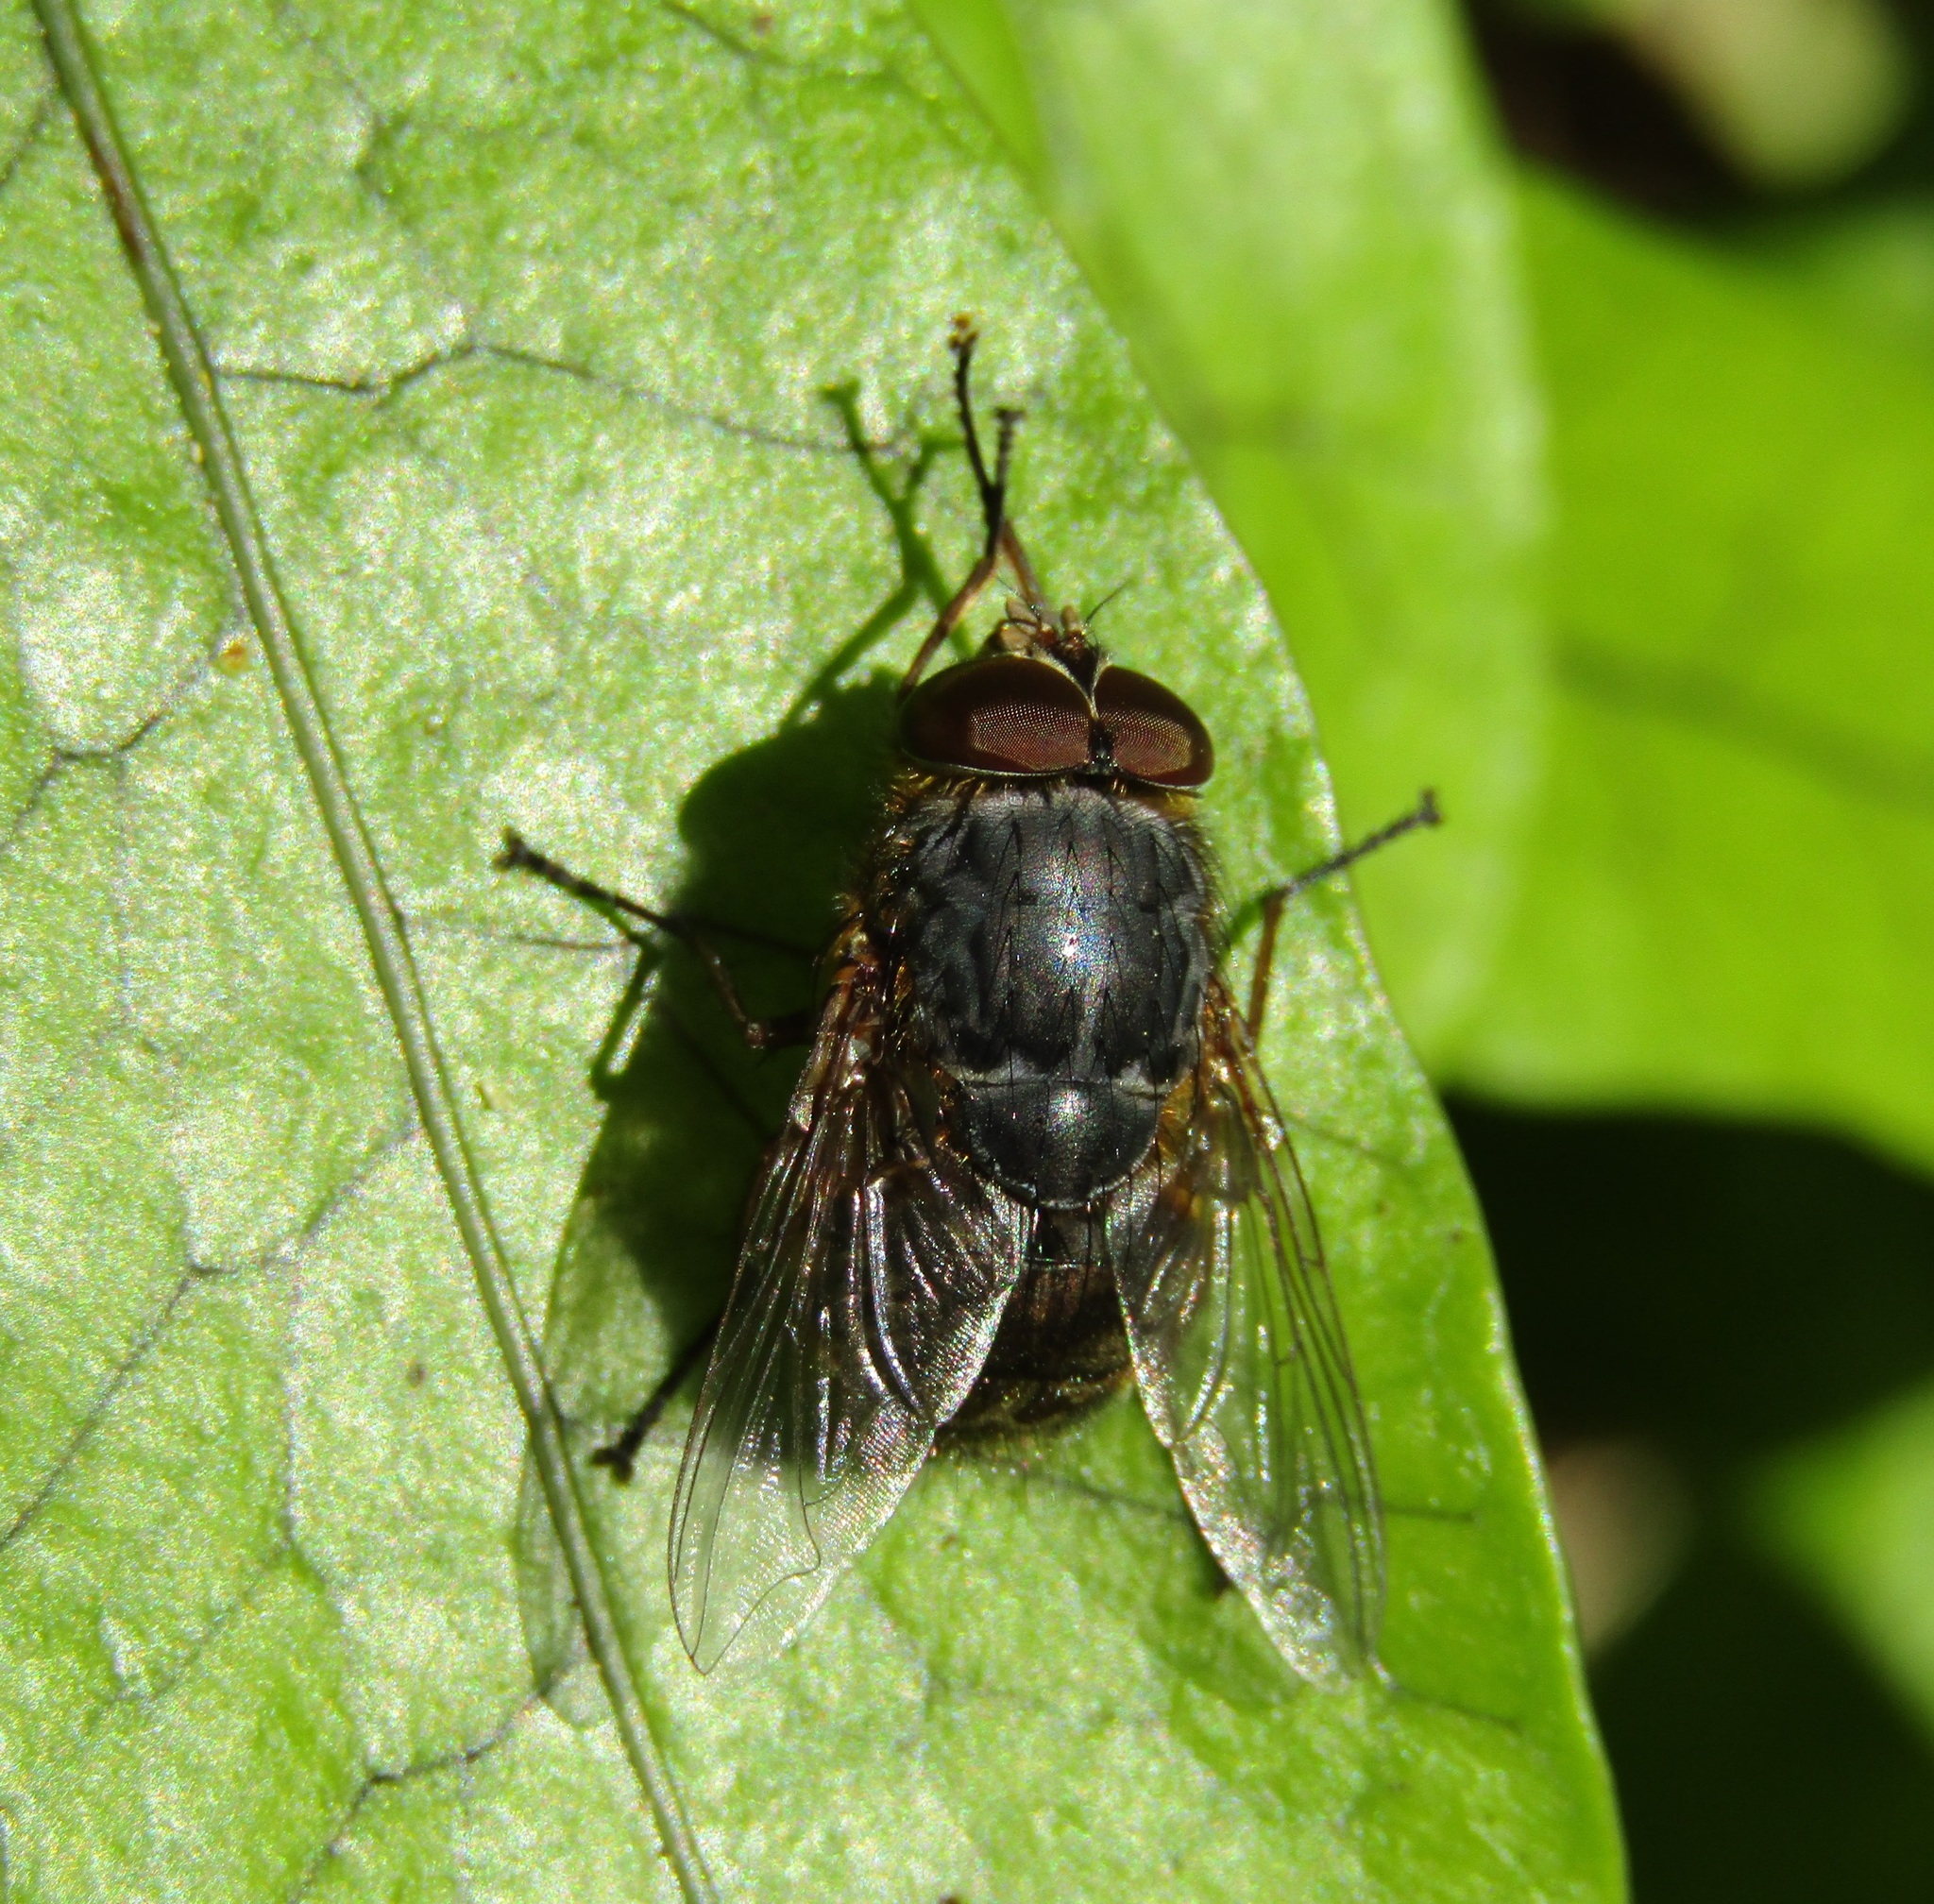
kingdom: Animalia
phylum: Arthropoda
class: Insecta
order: Diptera
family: Calliphoridae
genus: Calliphora
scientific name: Calliphora stygia
